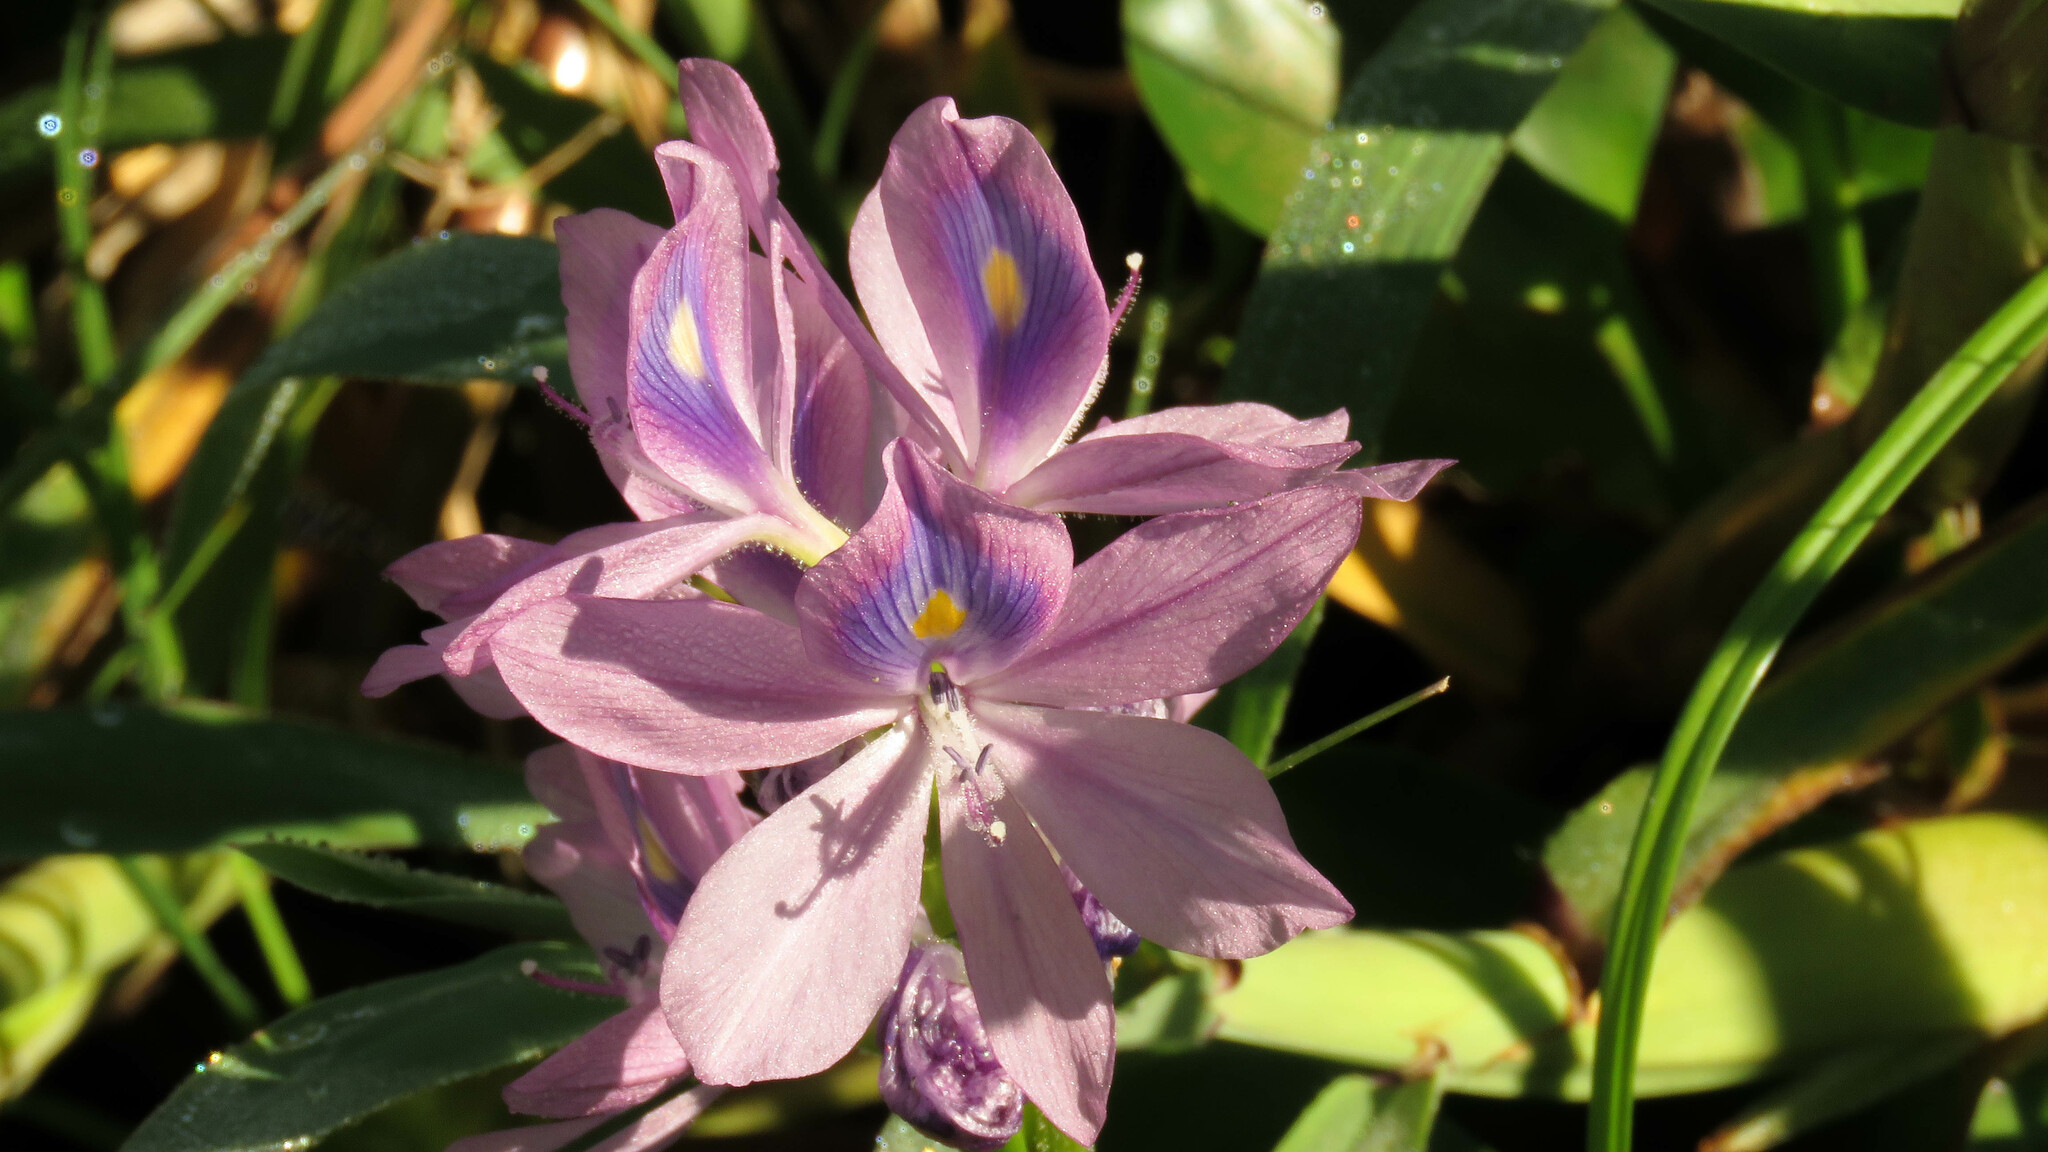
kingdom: Plantae
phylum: Tracheophyta
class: Liliopsida
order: Commelinales
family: Pontederiaceae
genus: Pontederia
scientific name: Pontederia crassipes
